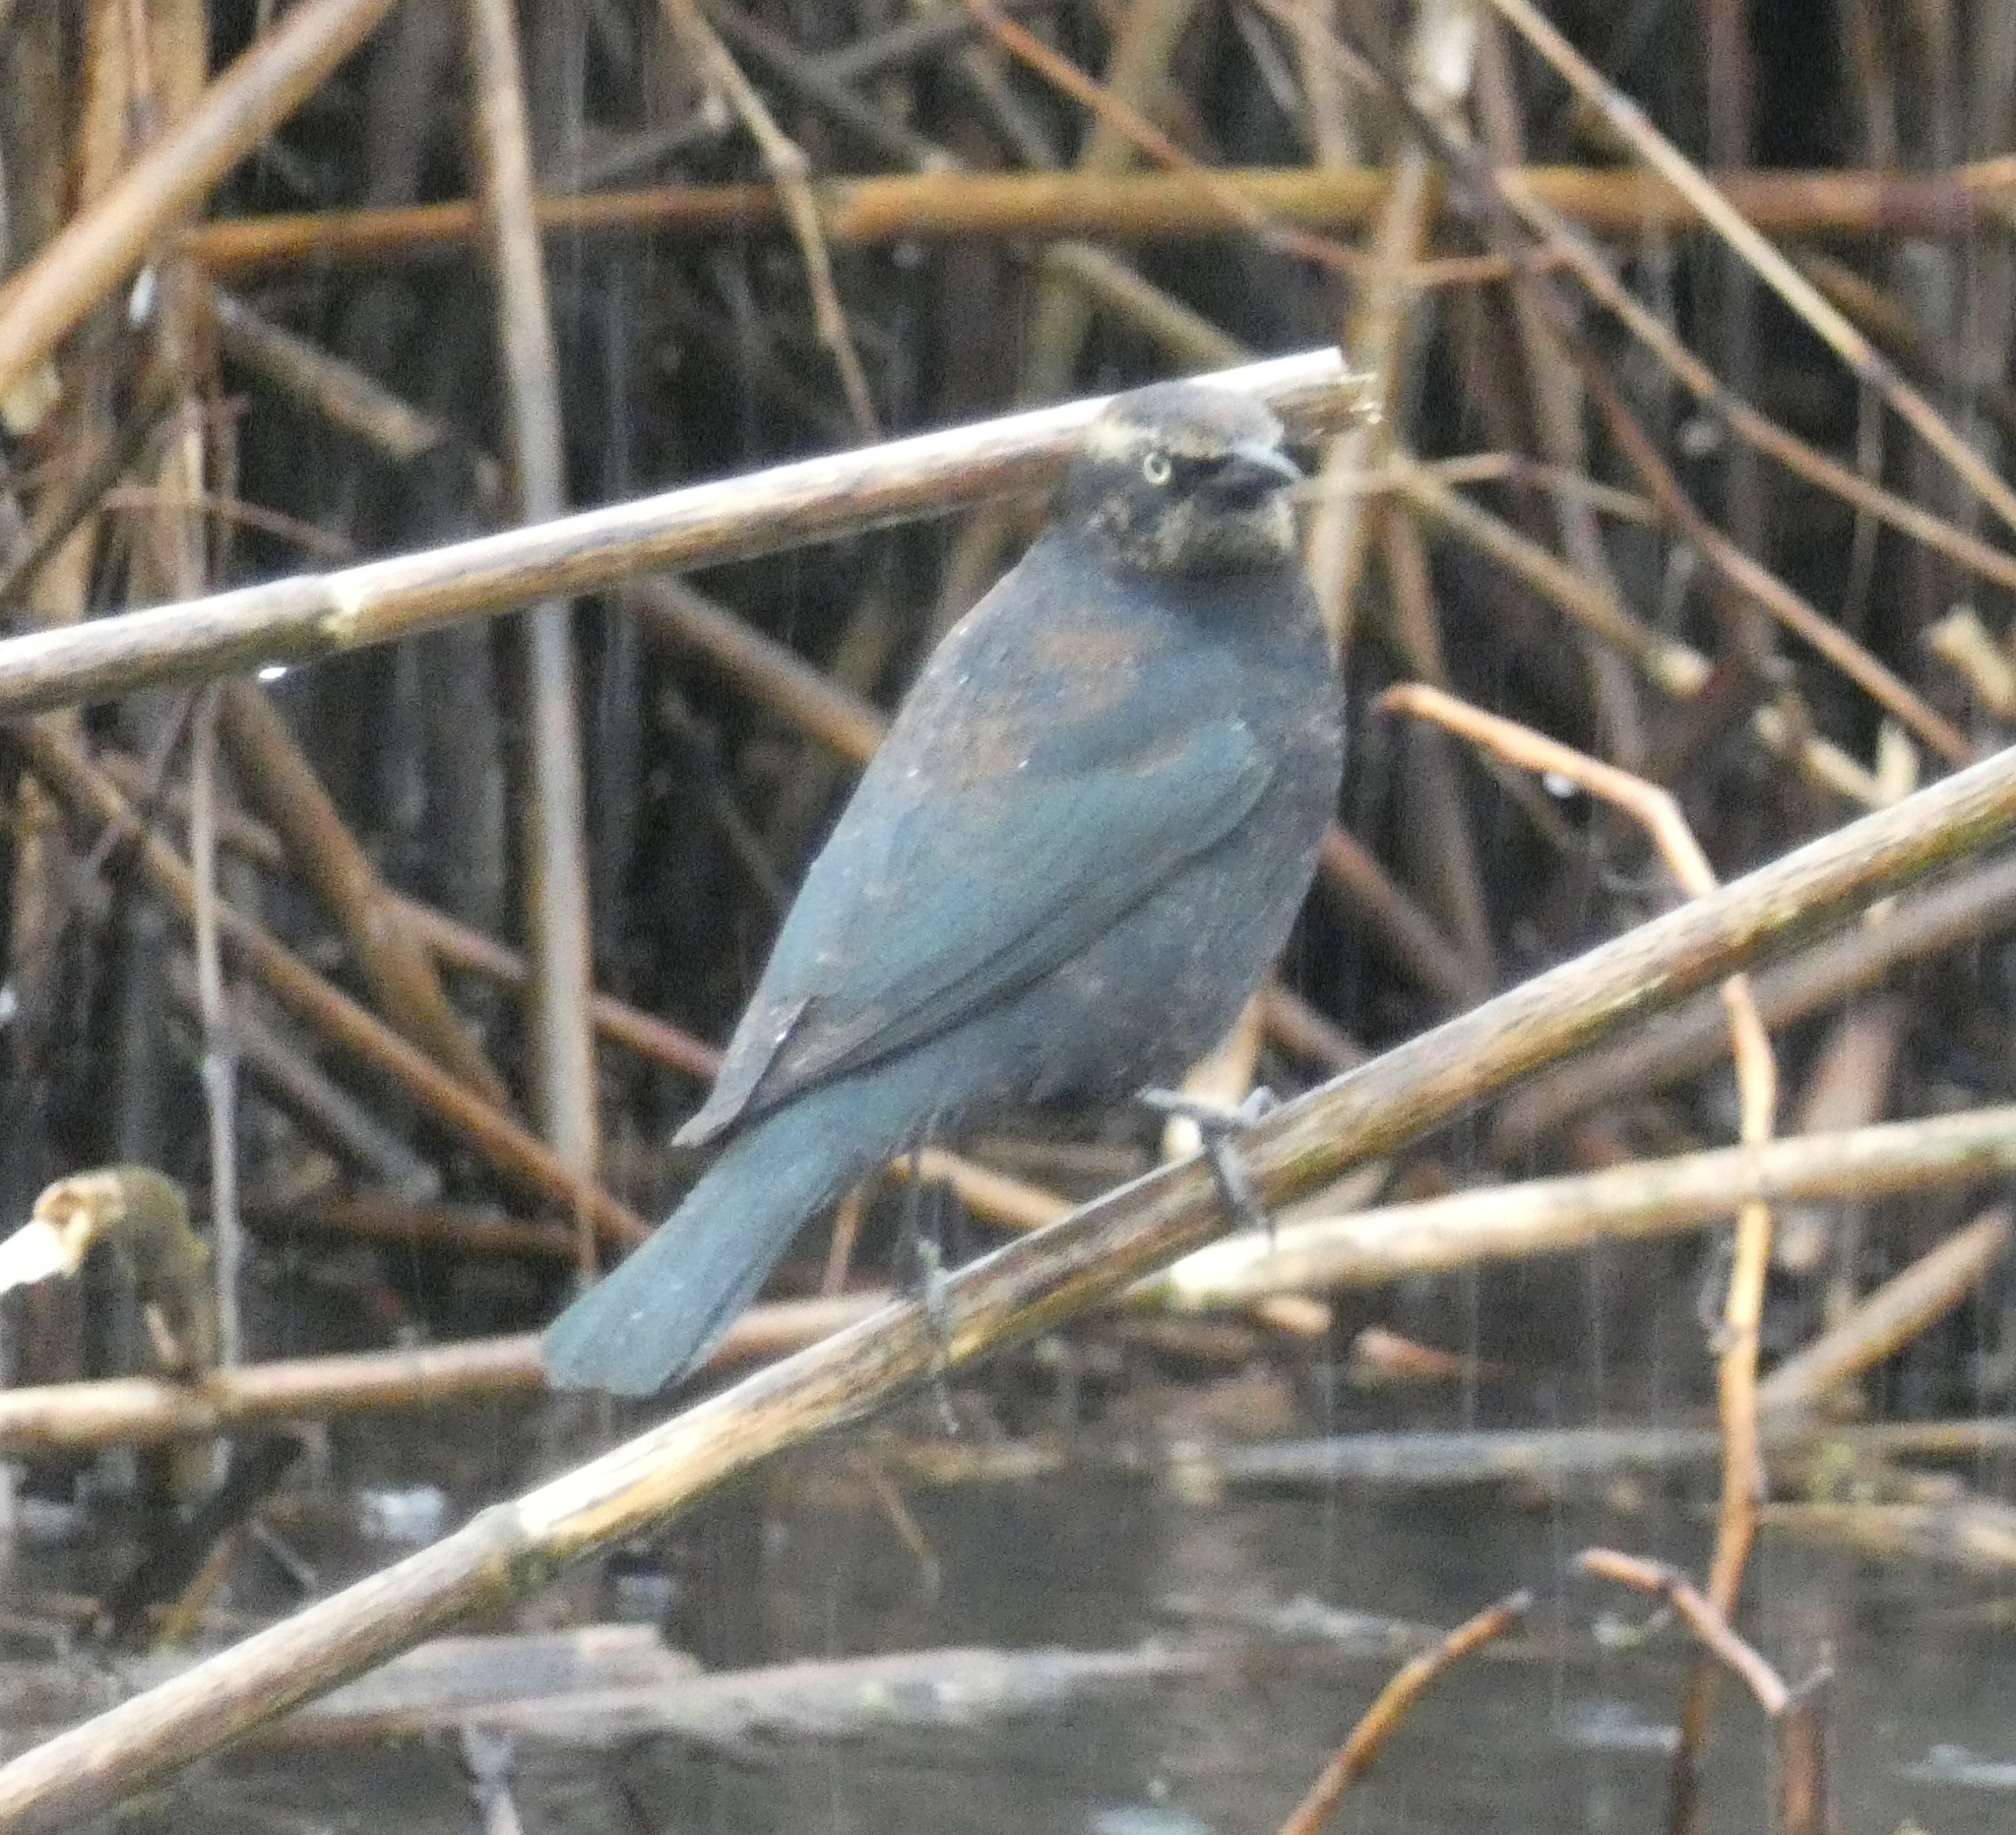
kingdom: Animalia
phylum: Chordata
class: Aves
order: Passeriformes
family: Icteridae
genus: Euphagus
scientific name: Euphagus carolinus
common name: Rusty blackbird
